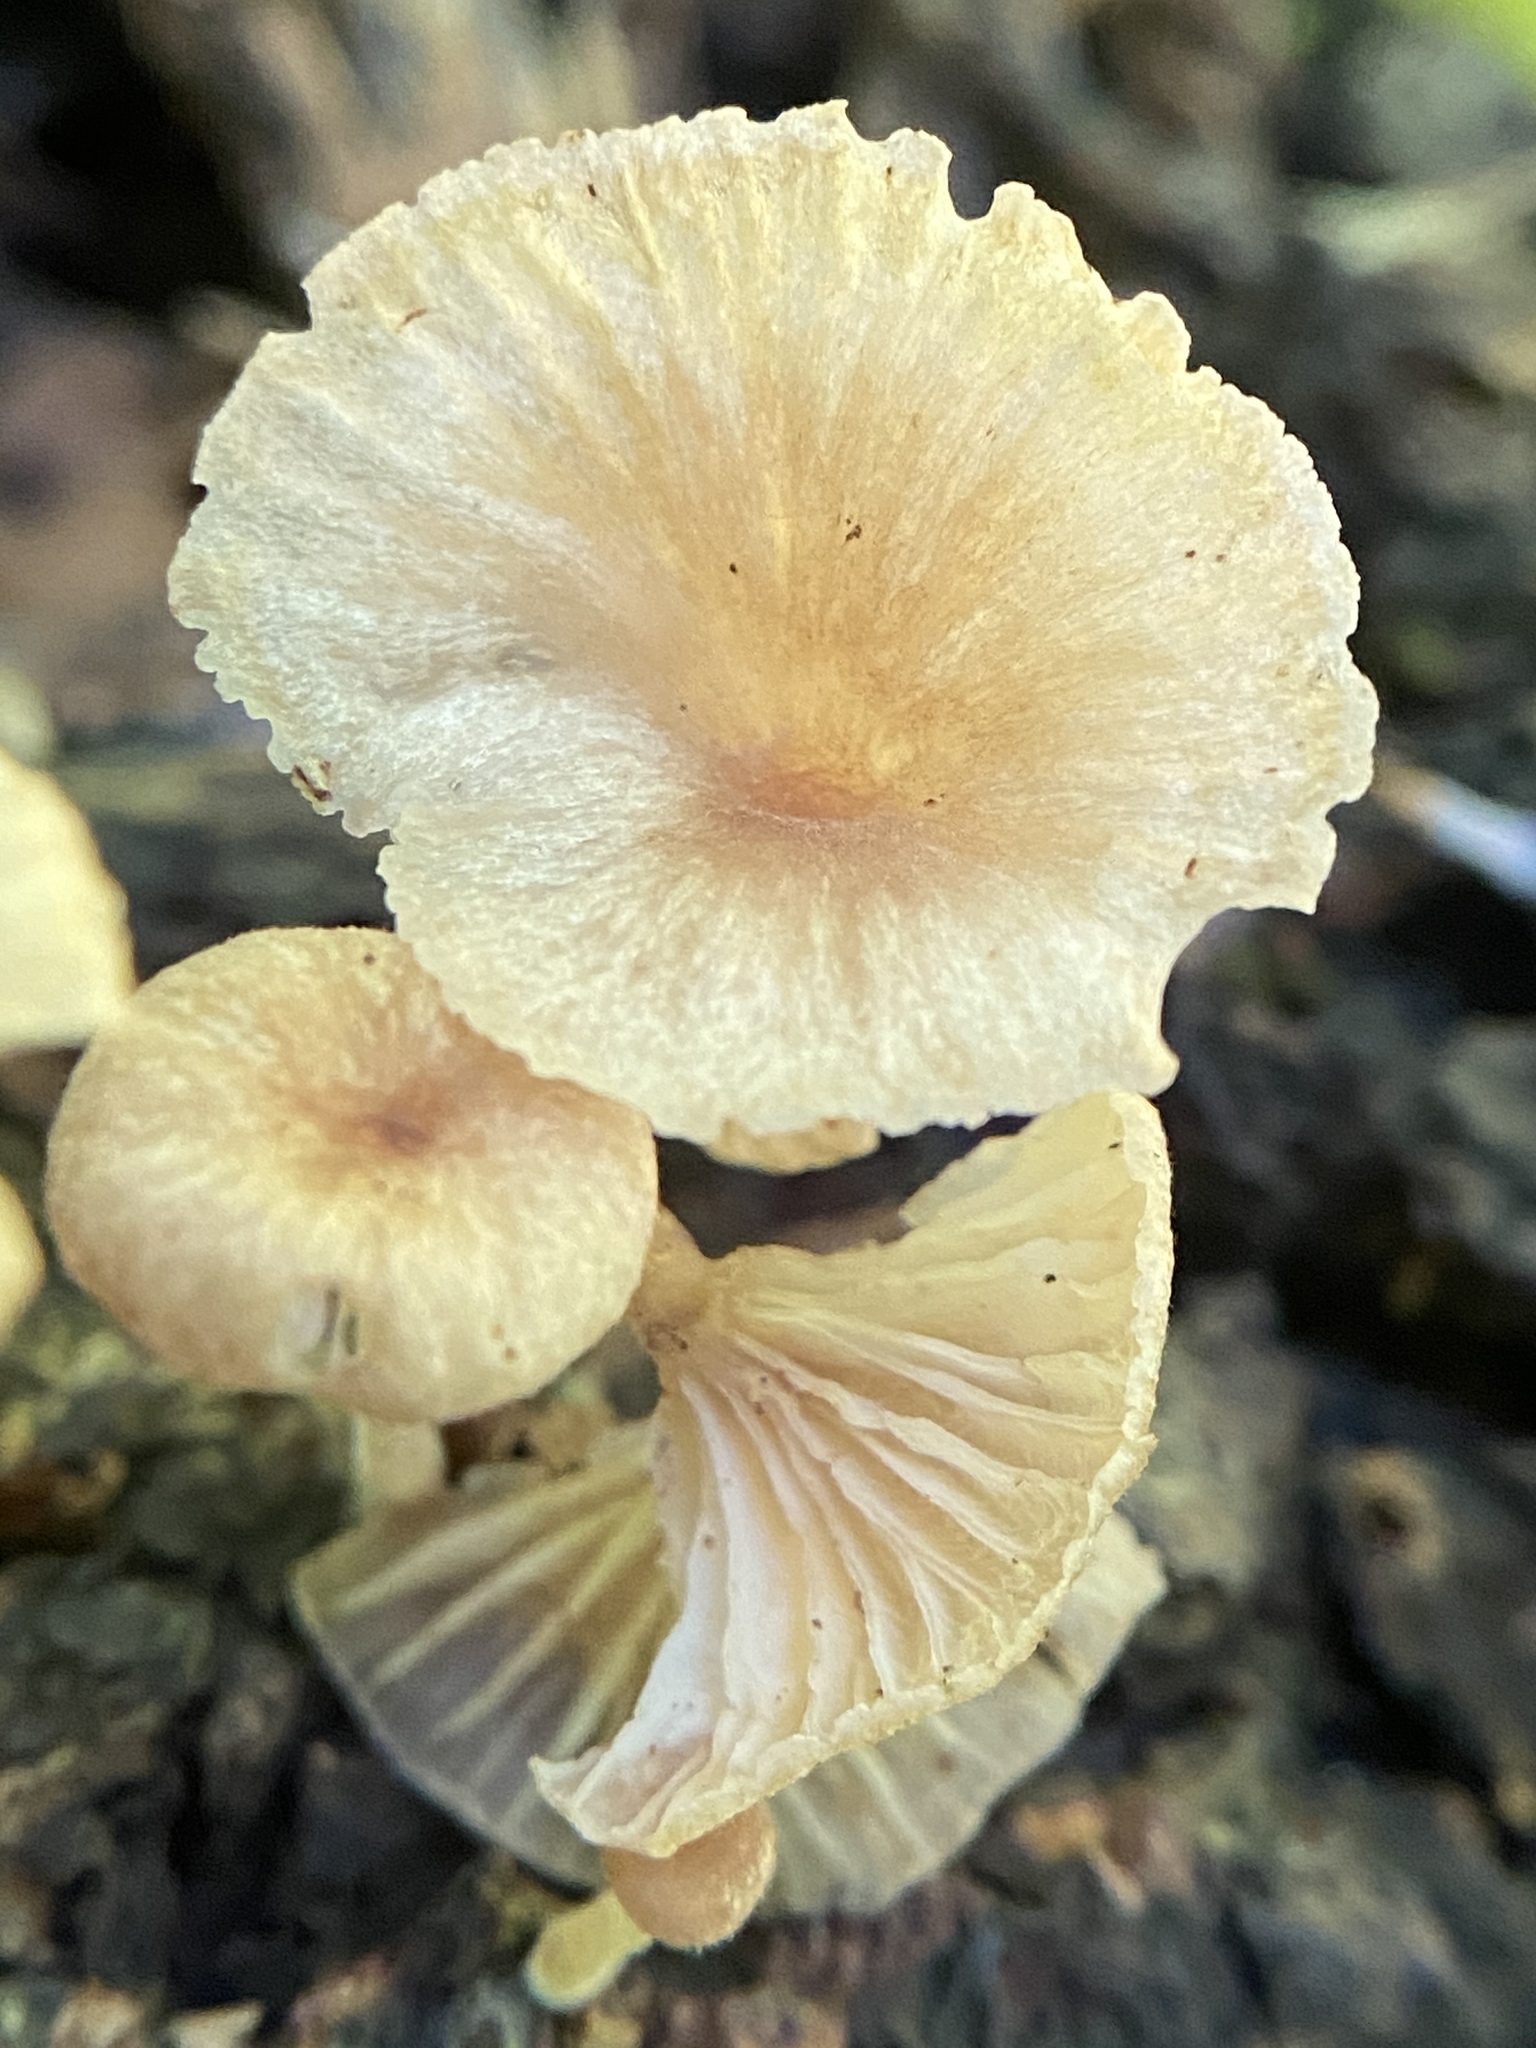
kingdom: Fungi
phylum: Basidiomycota
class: Agaricomycetes
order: Agaricales
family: Marasmiaceae
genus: Gerronema
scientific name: Gerronema strombodes
